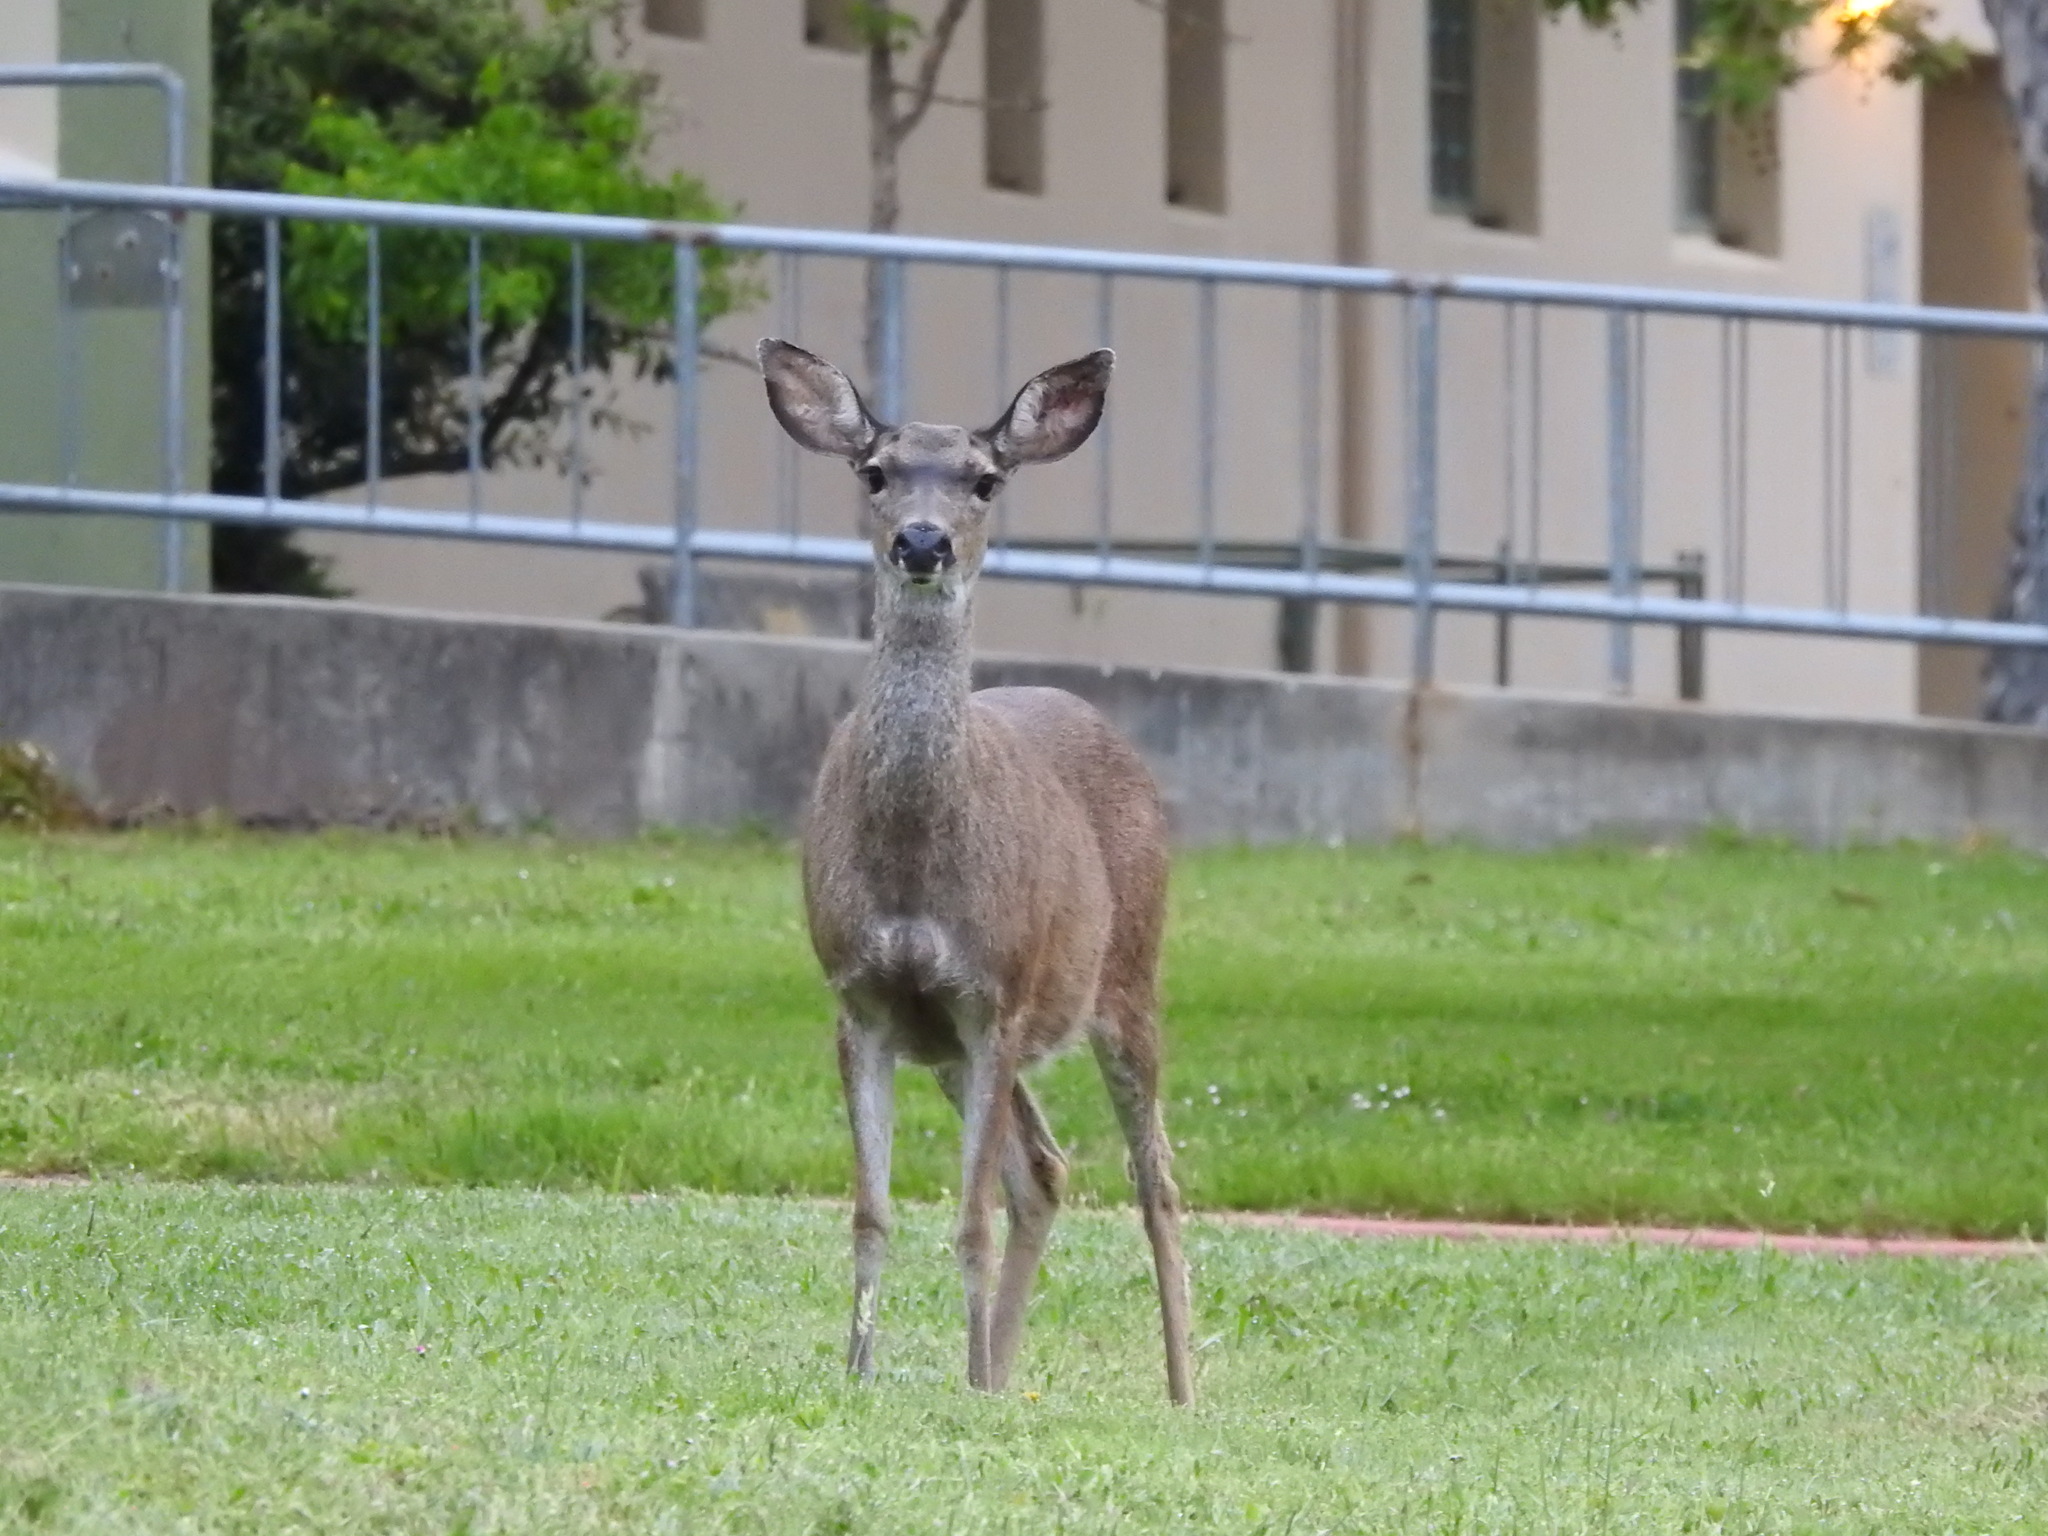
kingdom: Animalia
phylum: Chordata
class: Mammalia
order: Artiodactyla
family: Cervidae
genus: Odocoileus
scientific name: Odocoileus hemionus
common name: Mule deer
